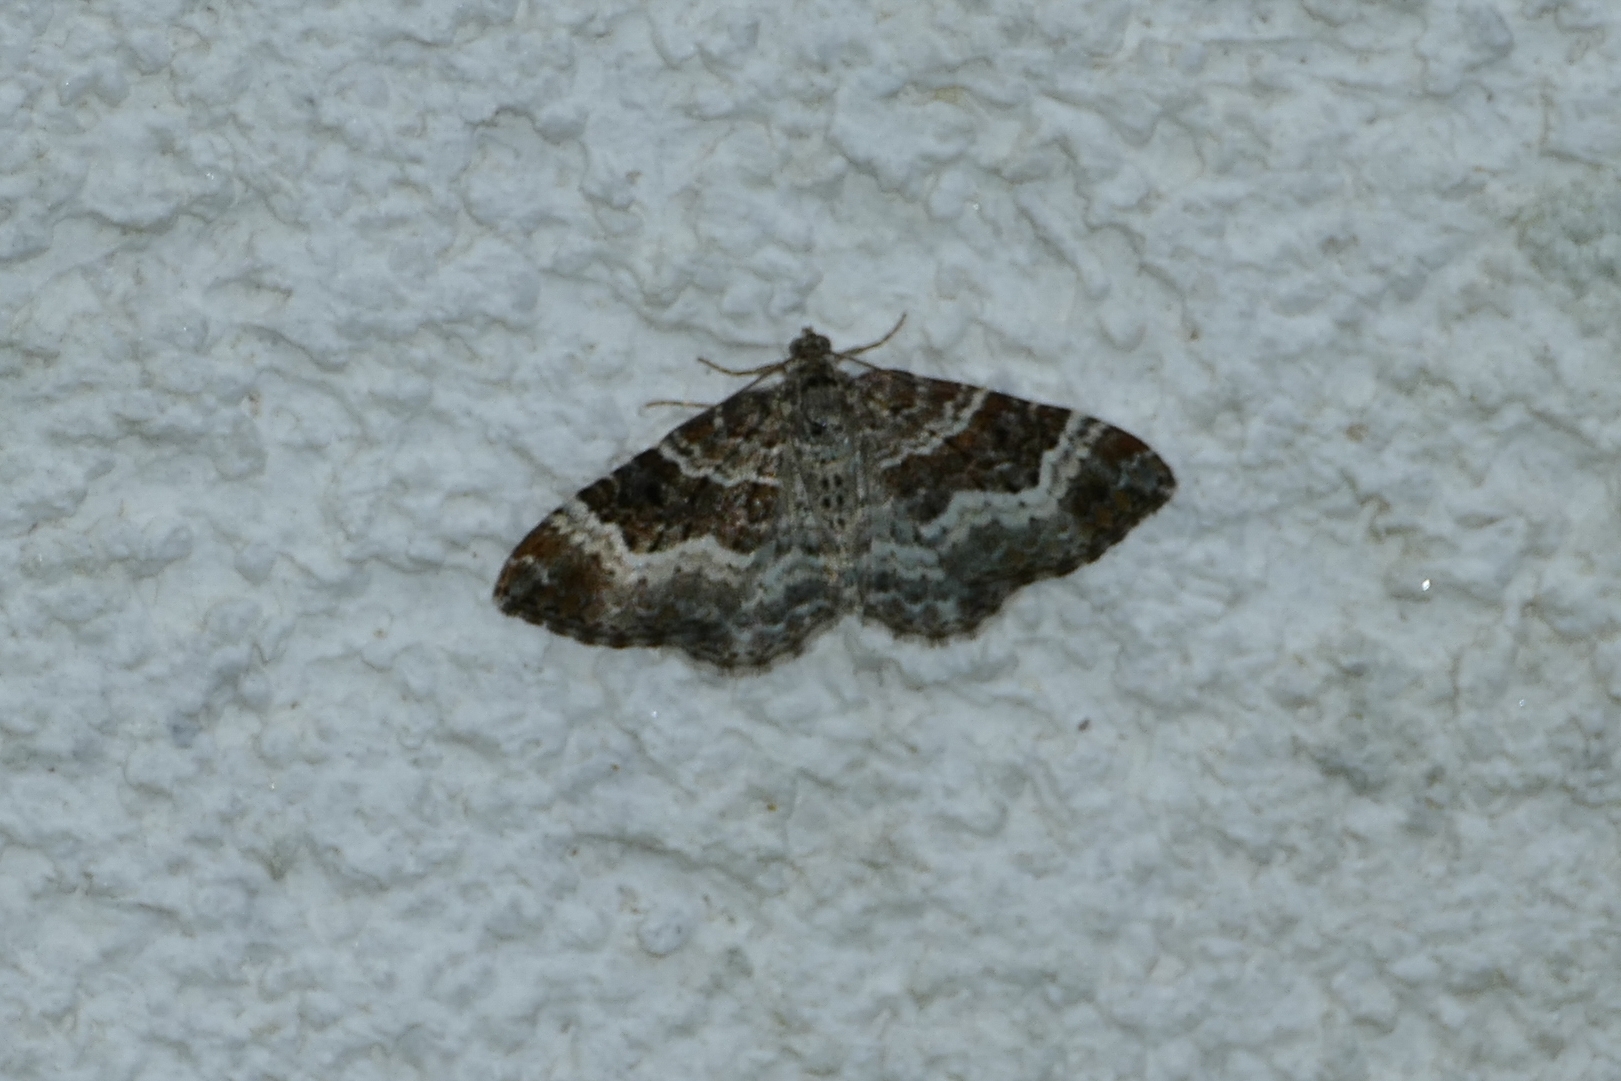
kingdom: Animalia
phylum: Arthropoda
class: Insecta
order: Lepidoptera
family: Geometridae
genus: Epirrhoe
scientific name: Epirrhoe alternata
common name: Common carpet
